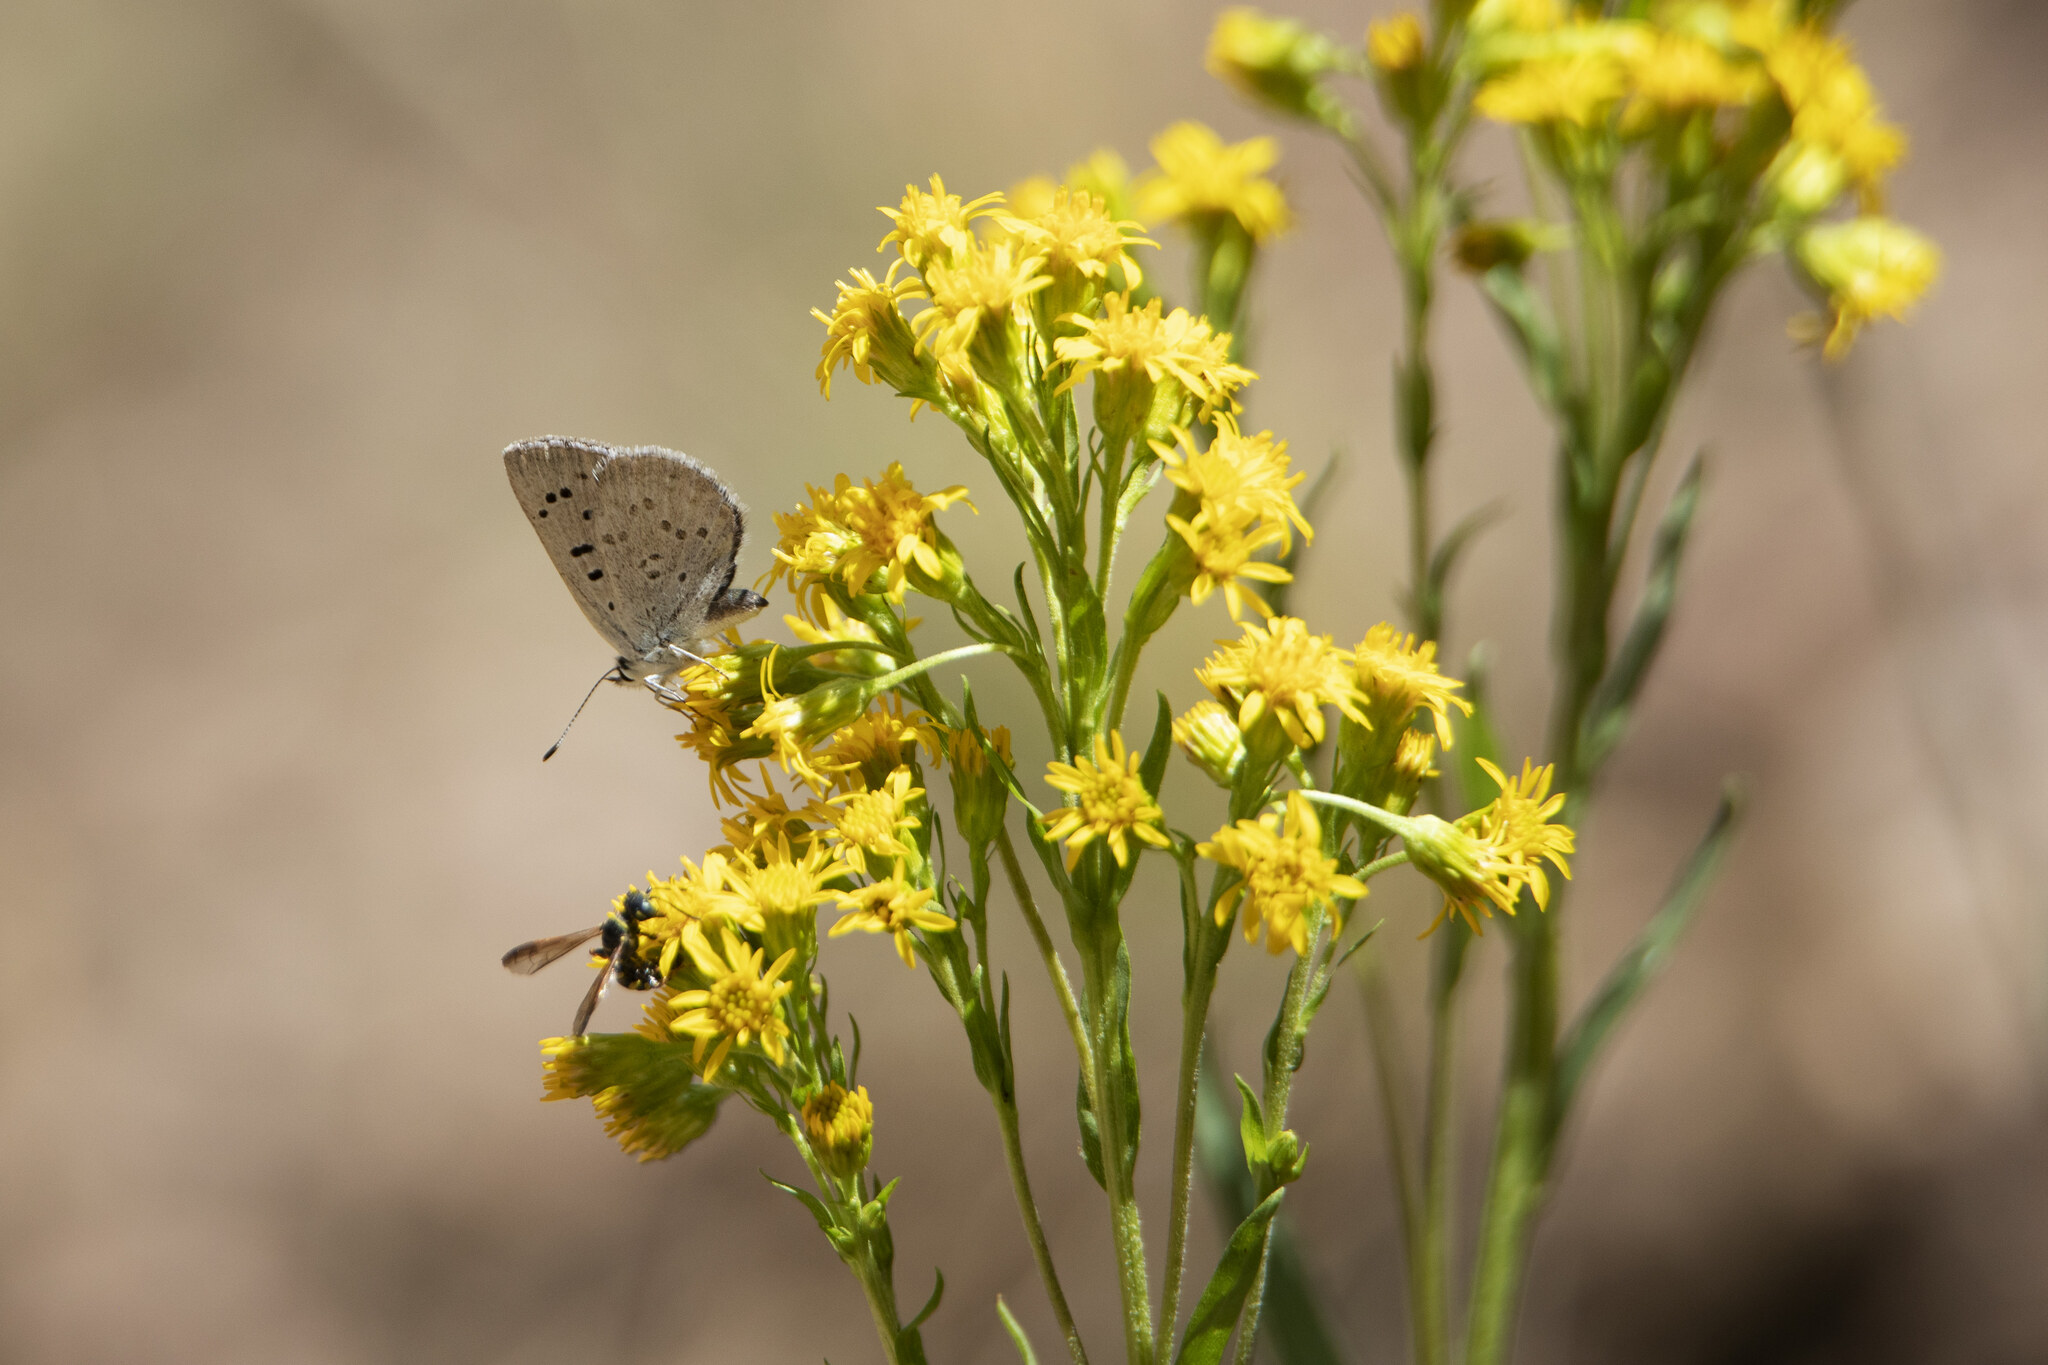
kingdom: Animalia
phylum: Arthropoda
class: Insecta
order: Lepidoptera
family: Lycaenidae
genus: Tharsalea
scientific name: Tharsalea heteronea
